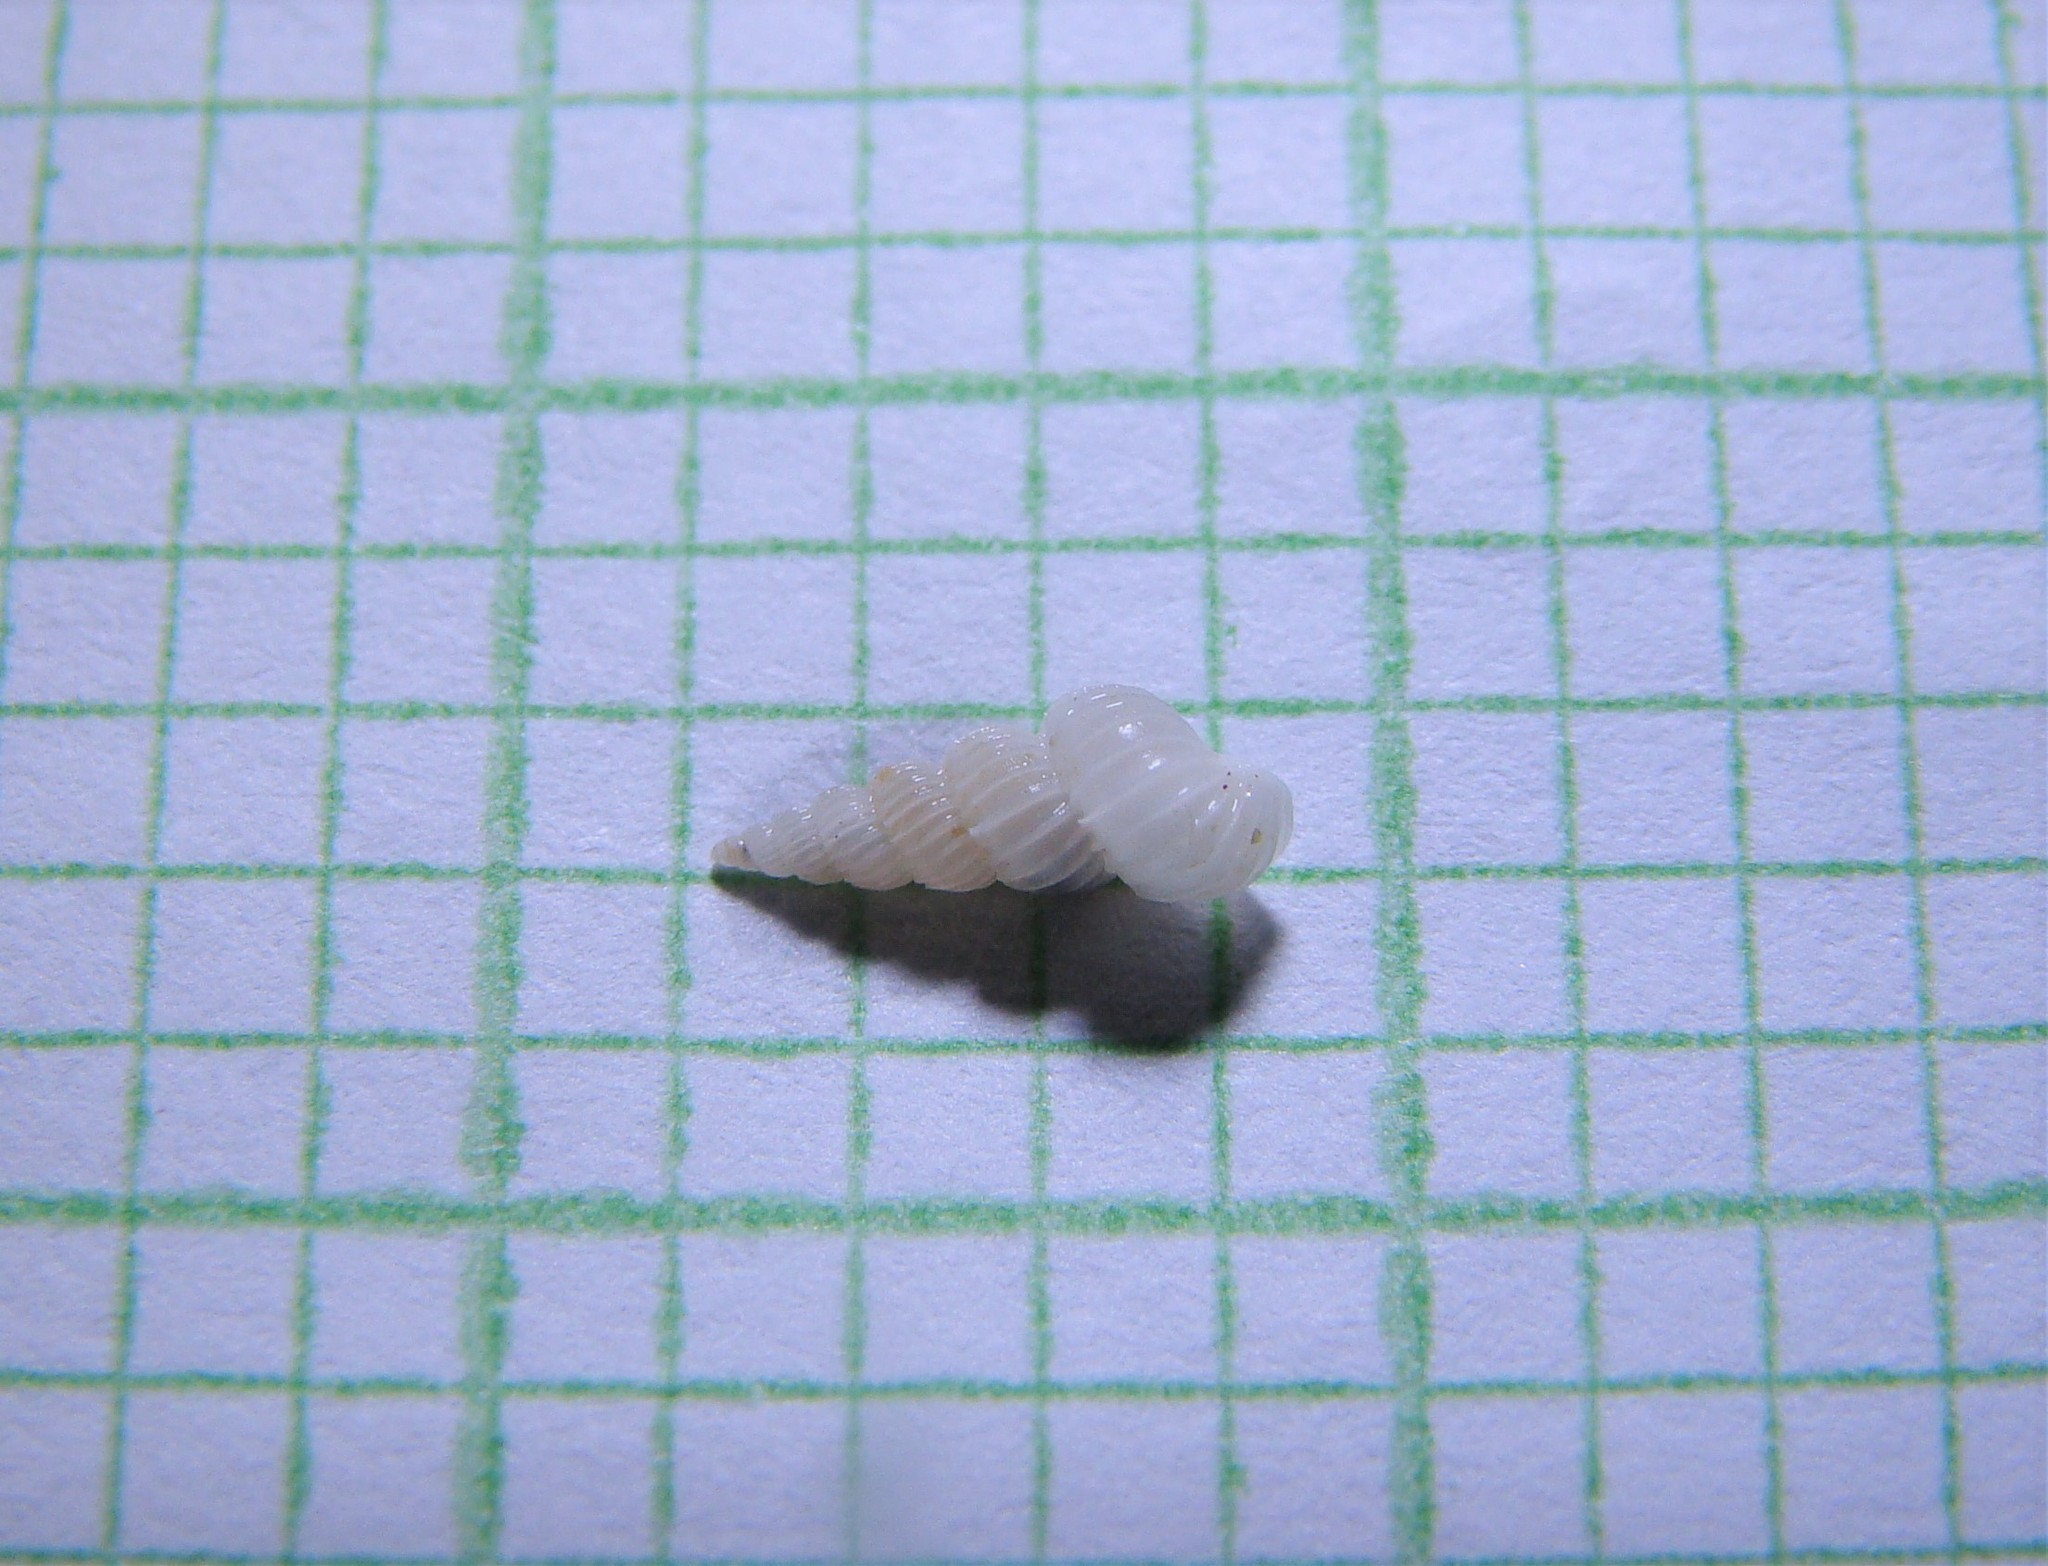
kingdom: Animalia
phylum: Mollusca
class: Gastropoda
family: Epitoniidae
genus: Epitonium
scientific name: Epitonium jukesianum
